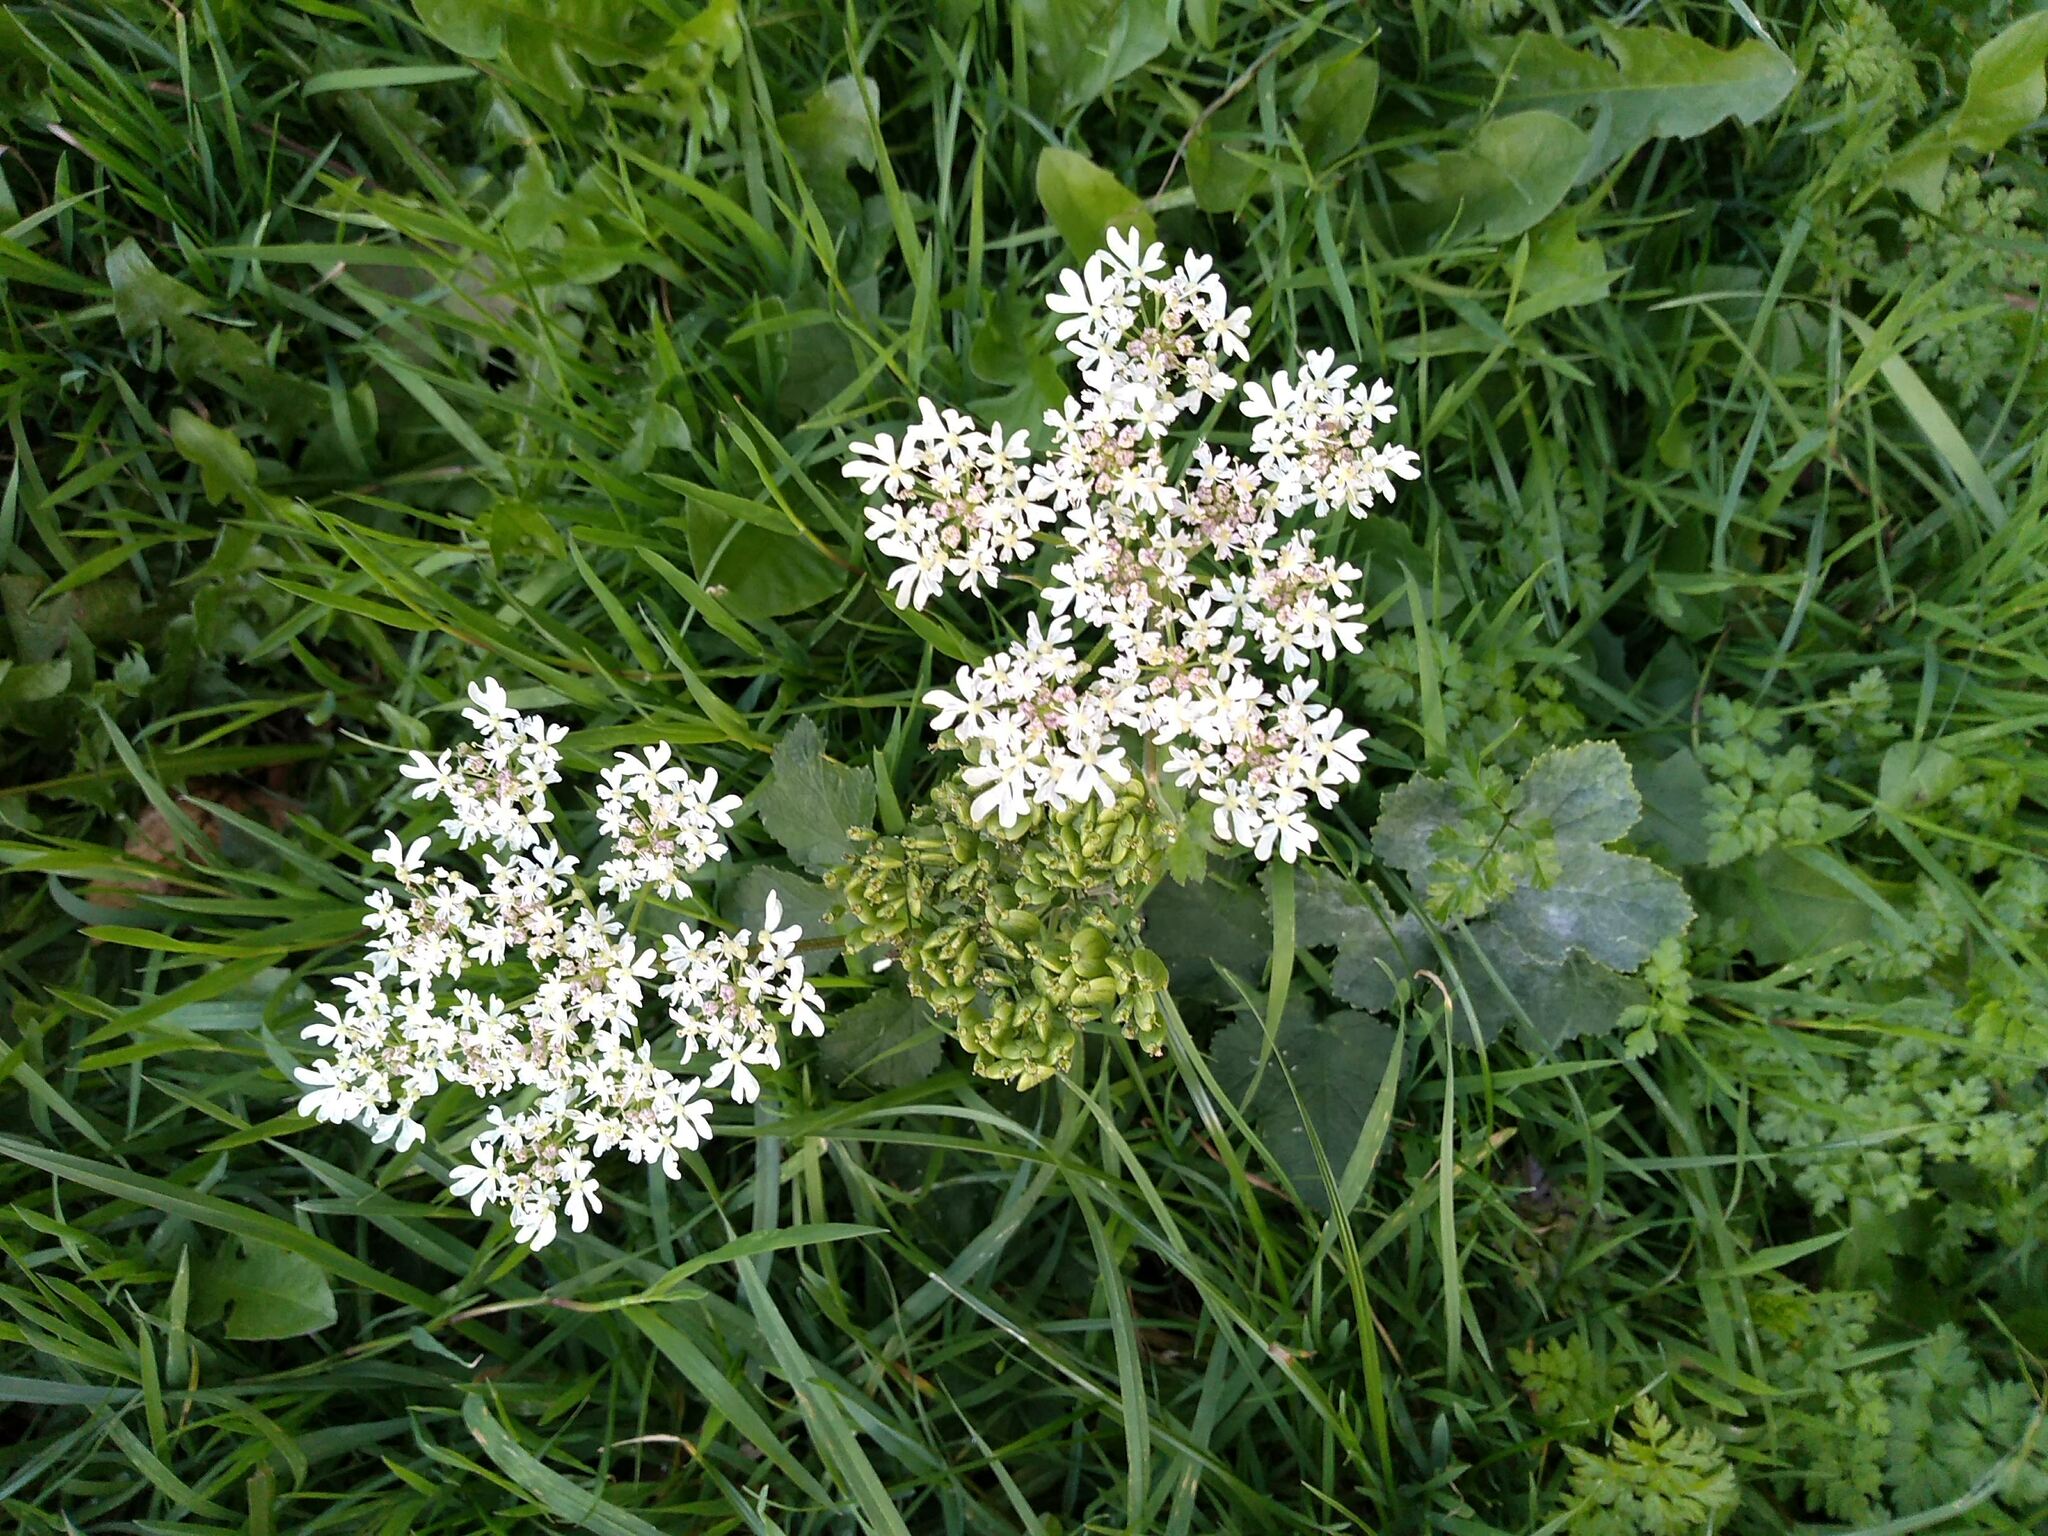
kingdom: Plantae
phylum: Tracheophyta
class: Magnoliopsida
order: Apiales
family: Apiaceae
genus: Heracleum
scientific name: Heracleum sphondylium
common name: Hogweed
